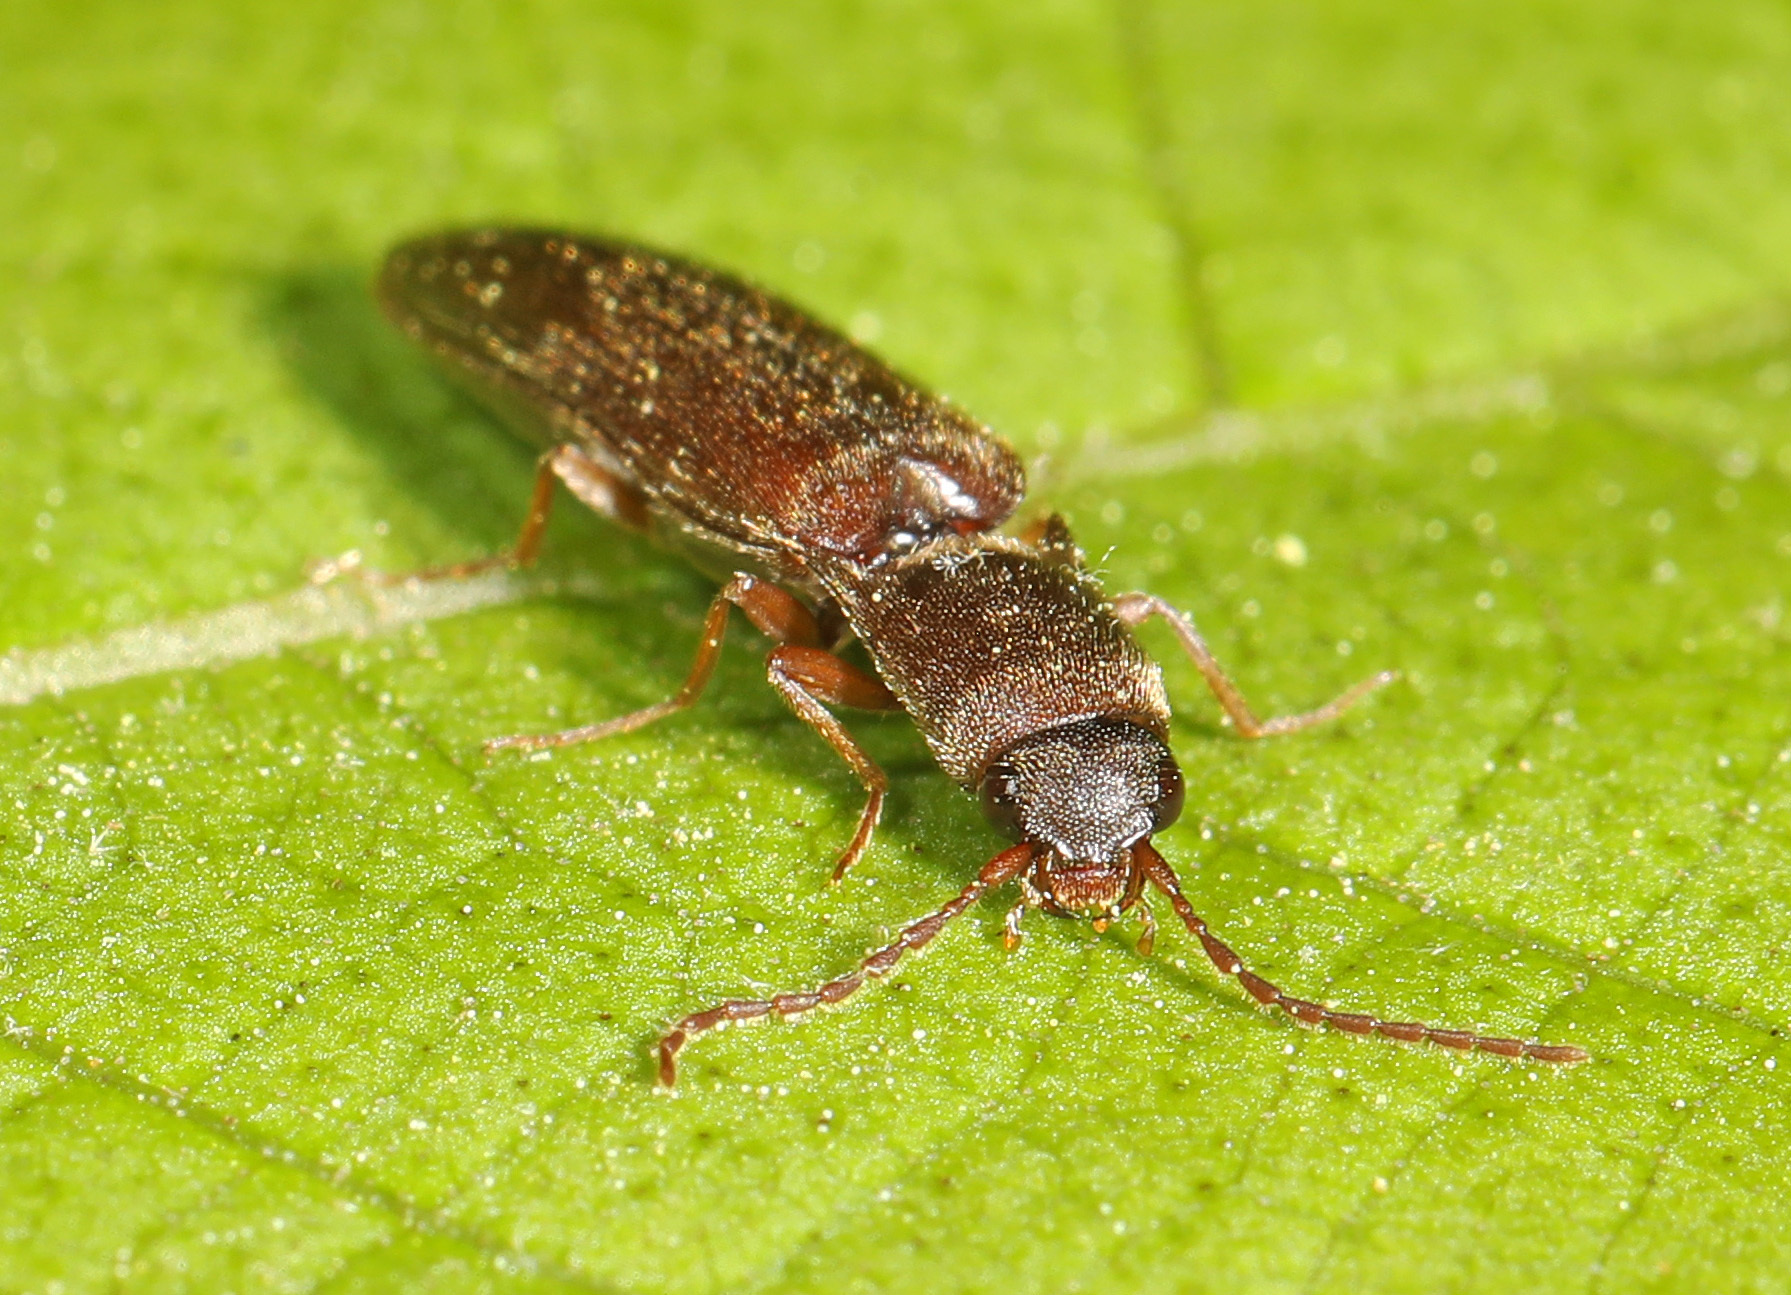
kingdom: Animalia
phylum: Arthropoda
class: Insecta
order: Coleoptera
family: Elateridae
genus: Agriotes
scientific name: Agriotes oblongicollis
